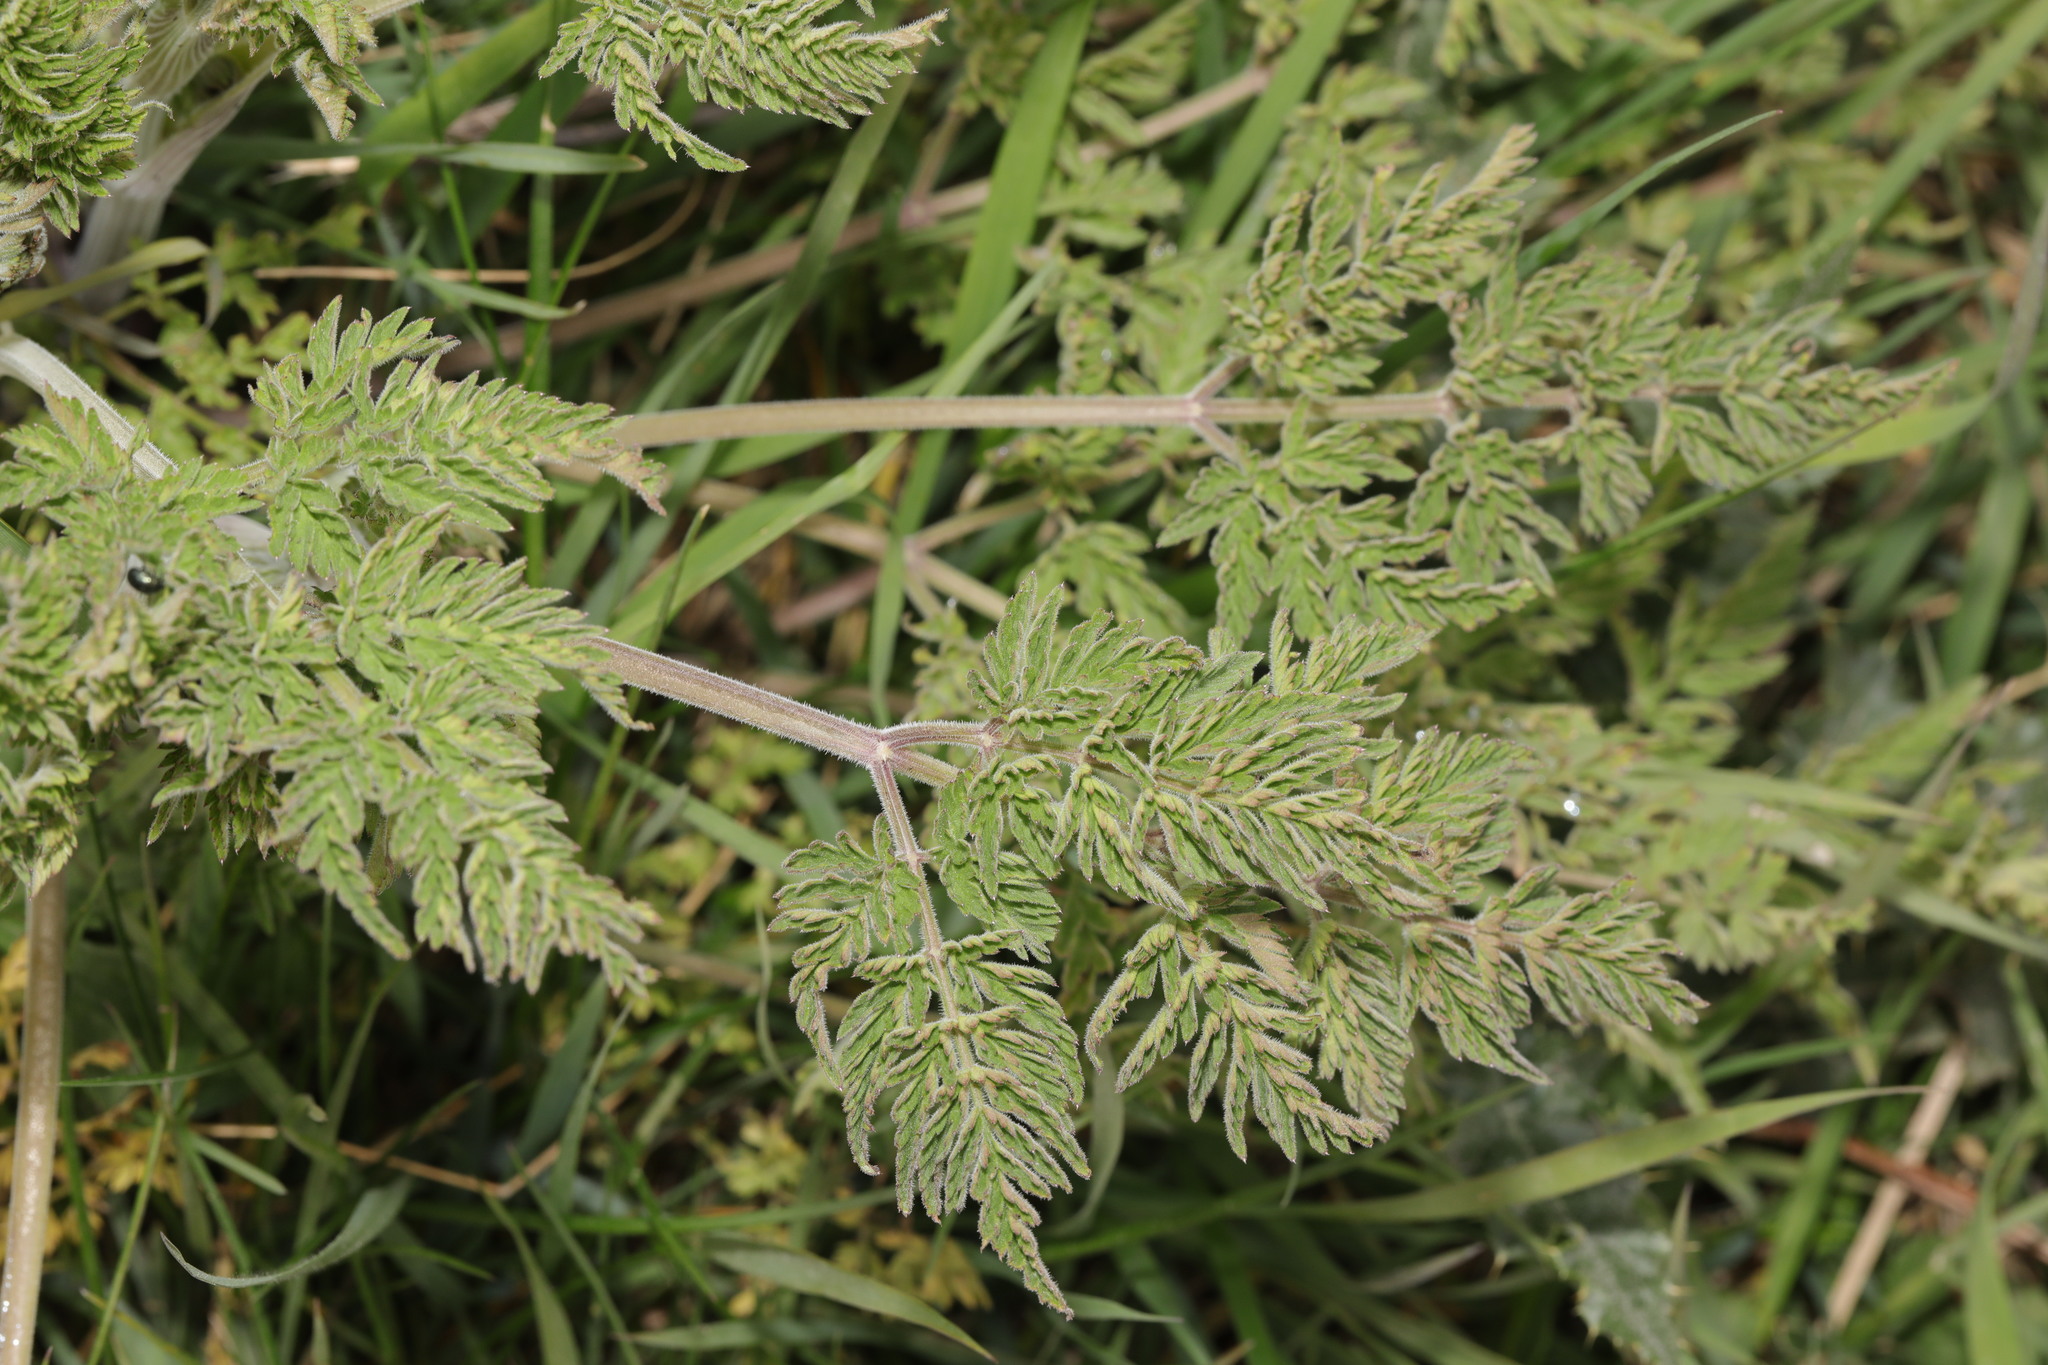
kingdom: Plantae
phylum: Tracheophyta
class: Magnoliopsida
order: Apiales
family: Apiaceae
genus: Anthriscus
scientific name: Anthriscus sylvestris
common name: Cow parsley
